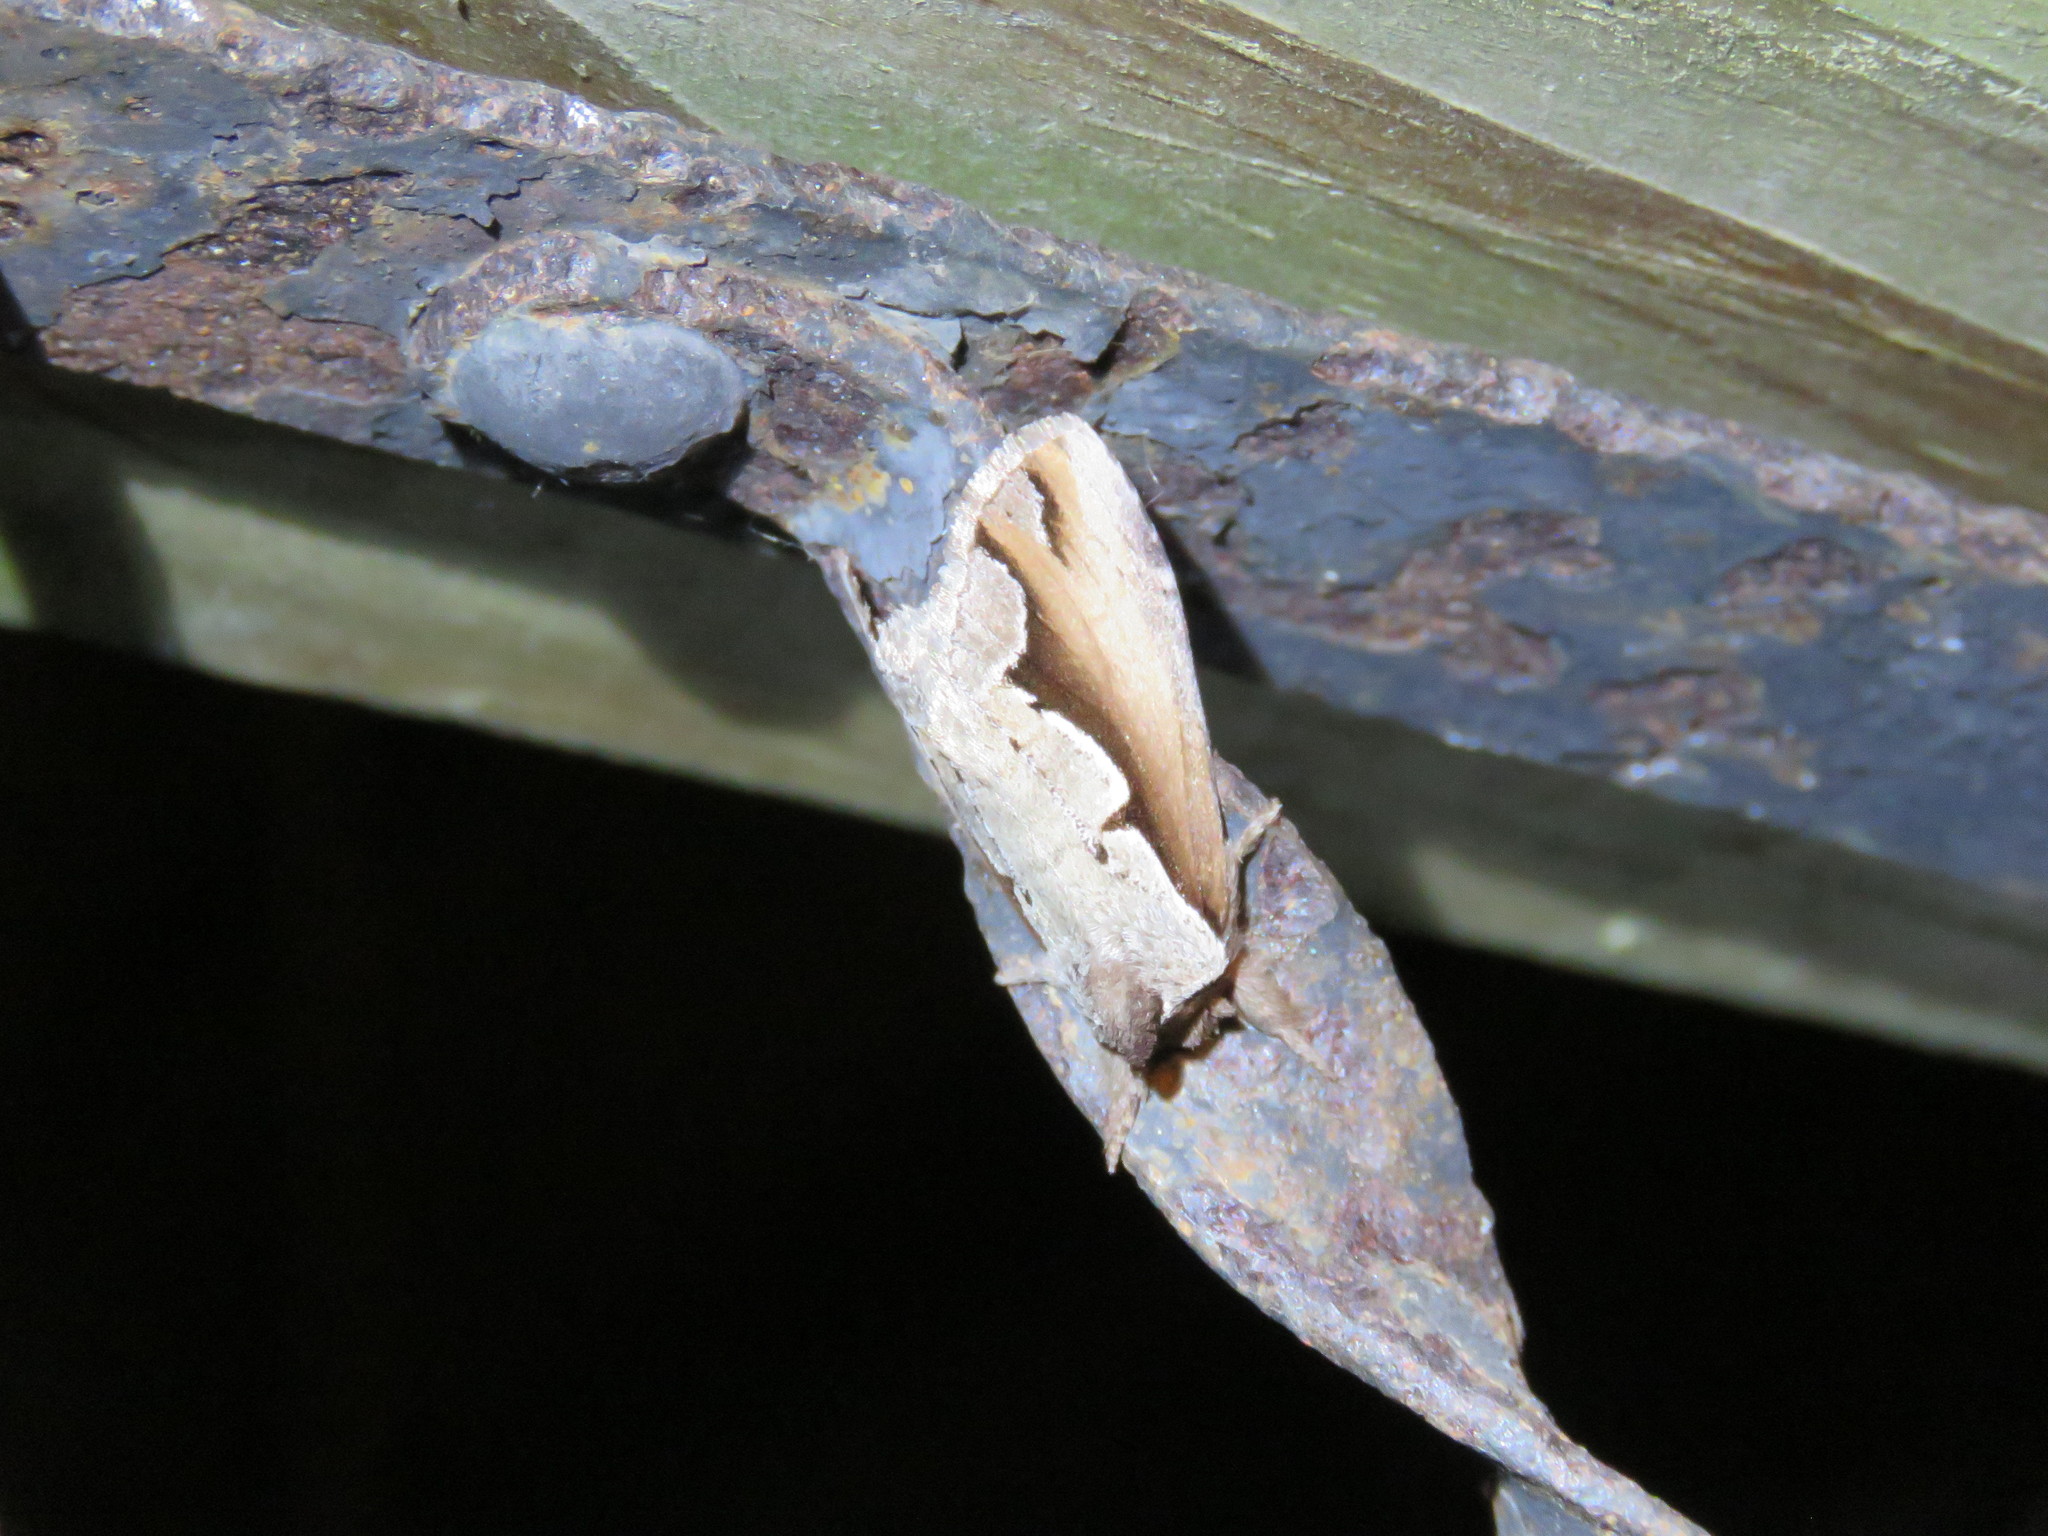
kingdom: Animalia
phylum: Arthropoda
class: Insecta
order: Lepidoptera
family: Notodontidae
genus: Nerice
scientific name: Nerice bidentata
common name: Double-toothed prominent
